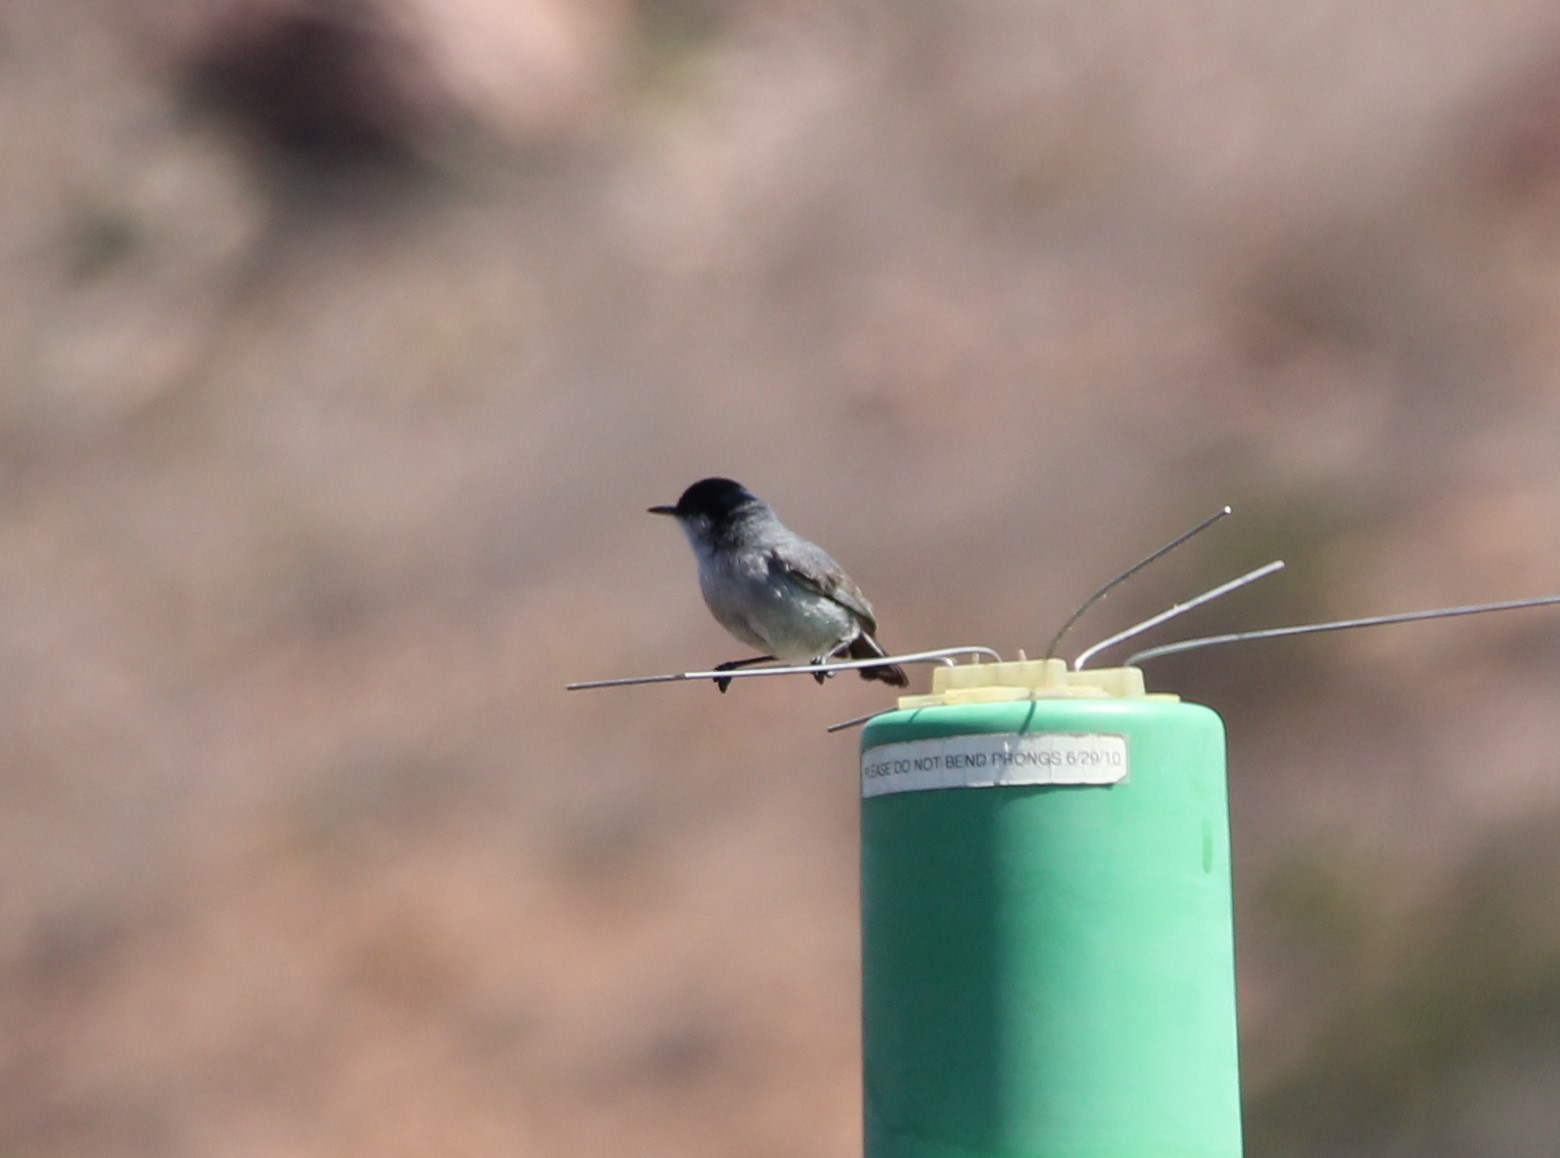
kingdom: Animalia
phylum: Chordata
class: Aves
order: Passeriformes
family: Polioptilidae
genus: Polioptila
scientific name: Polioptila californica
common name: California gnatcatcher
